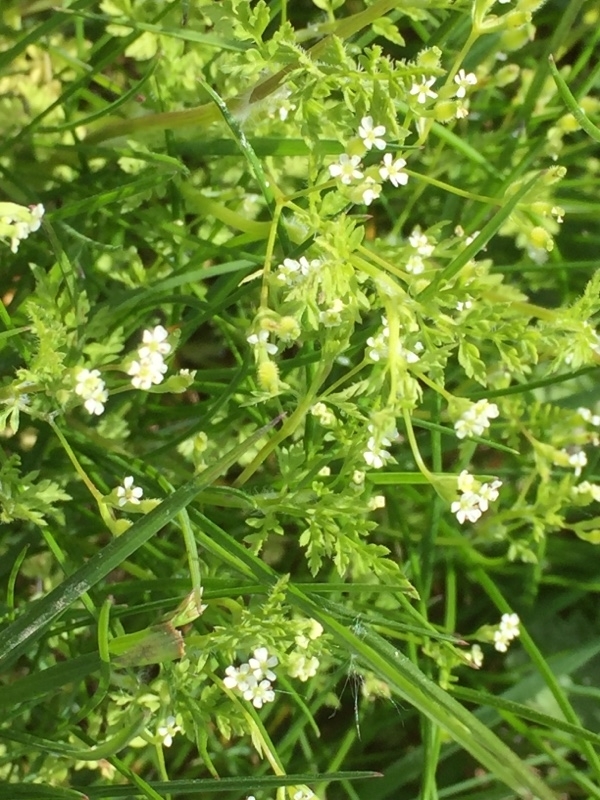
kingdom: Plantae
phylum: Tracheophyta
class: Magnoliopsida
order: Apiales
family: Apiaceae
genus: Anthriscus
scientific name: Anthriscus caucalis
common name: Bur chervil
